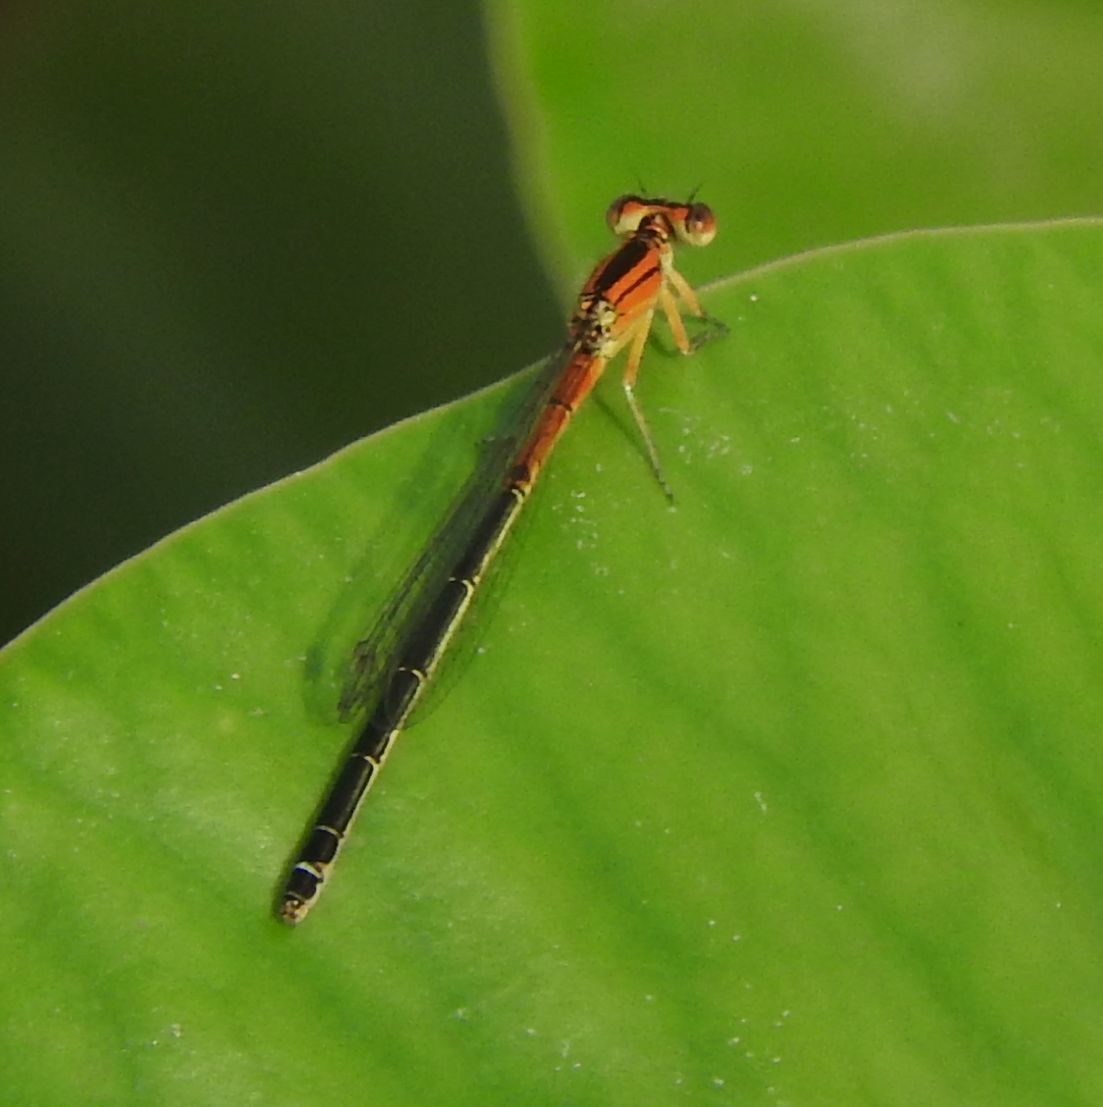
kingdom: Animalia
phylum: Arthropoda
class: Insecta
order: Odonata
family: Coenagrionidae
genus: Ischnura
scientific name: Ischnura verticalis
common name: Eastern forktail
